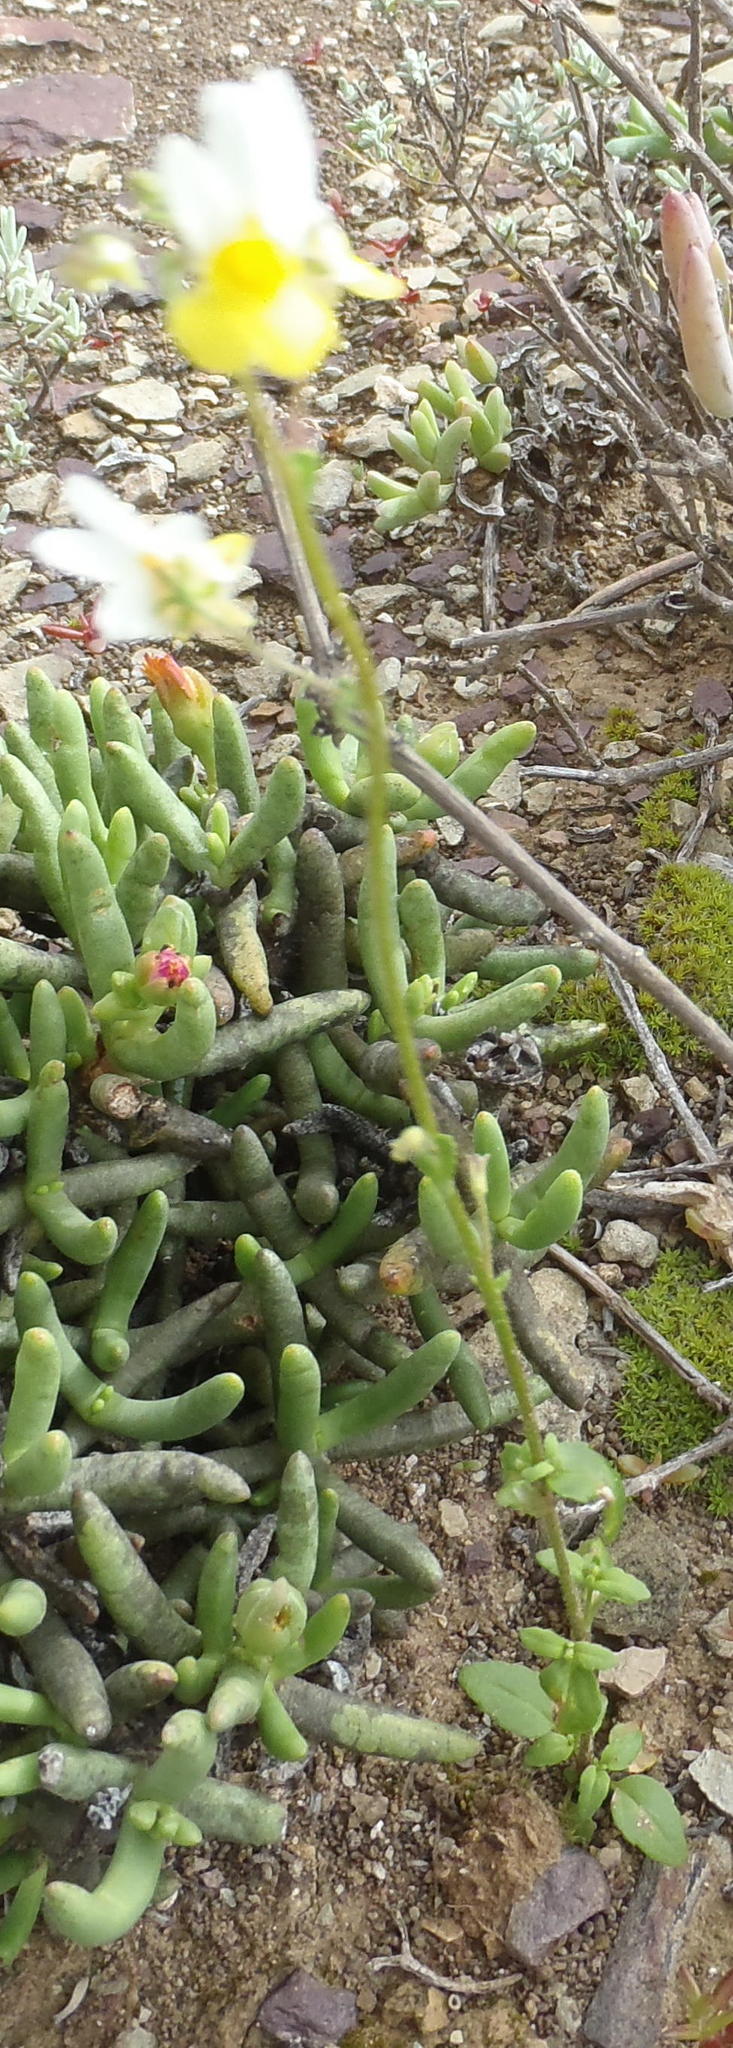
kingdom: Plantae
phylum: Tracheophyta
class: Magnoliopsida
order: Lamiales
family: Scrophulariaceae
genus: Nemesia
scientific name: Nemesia ligulata
